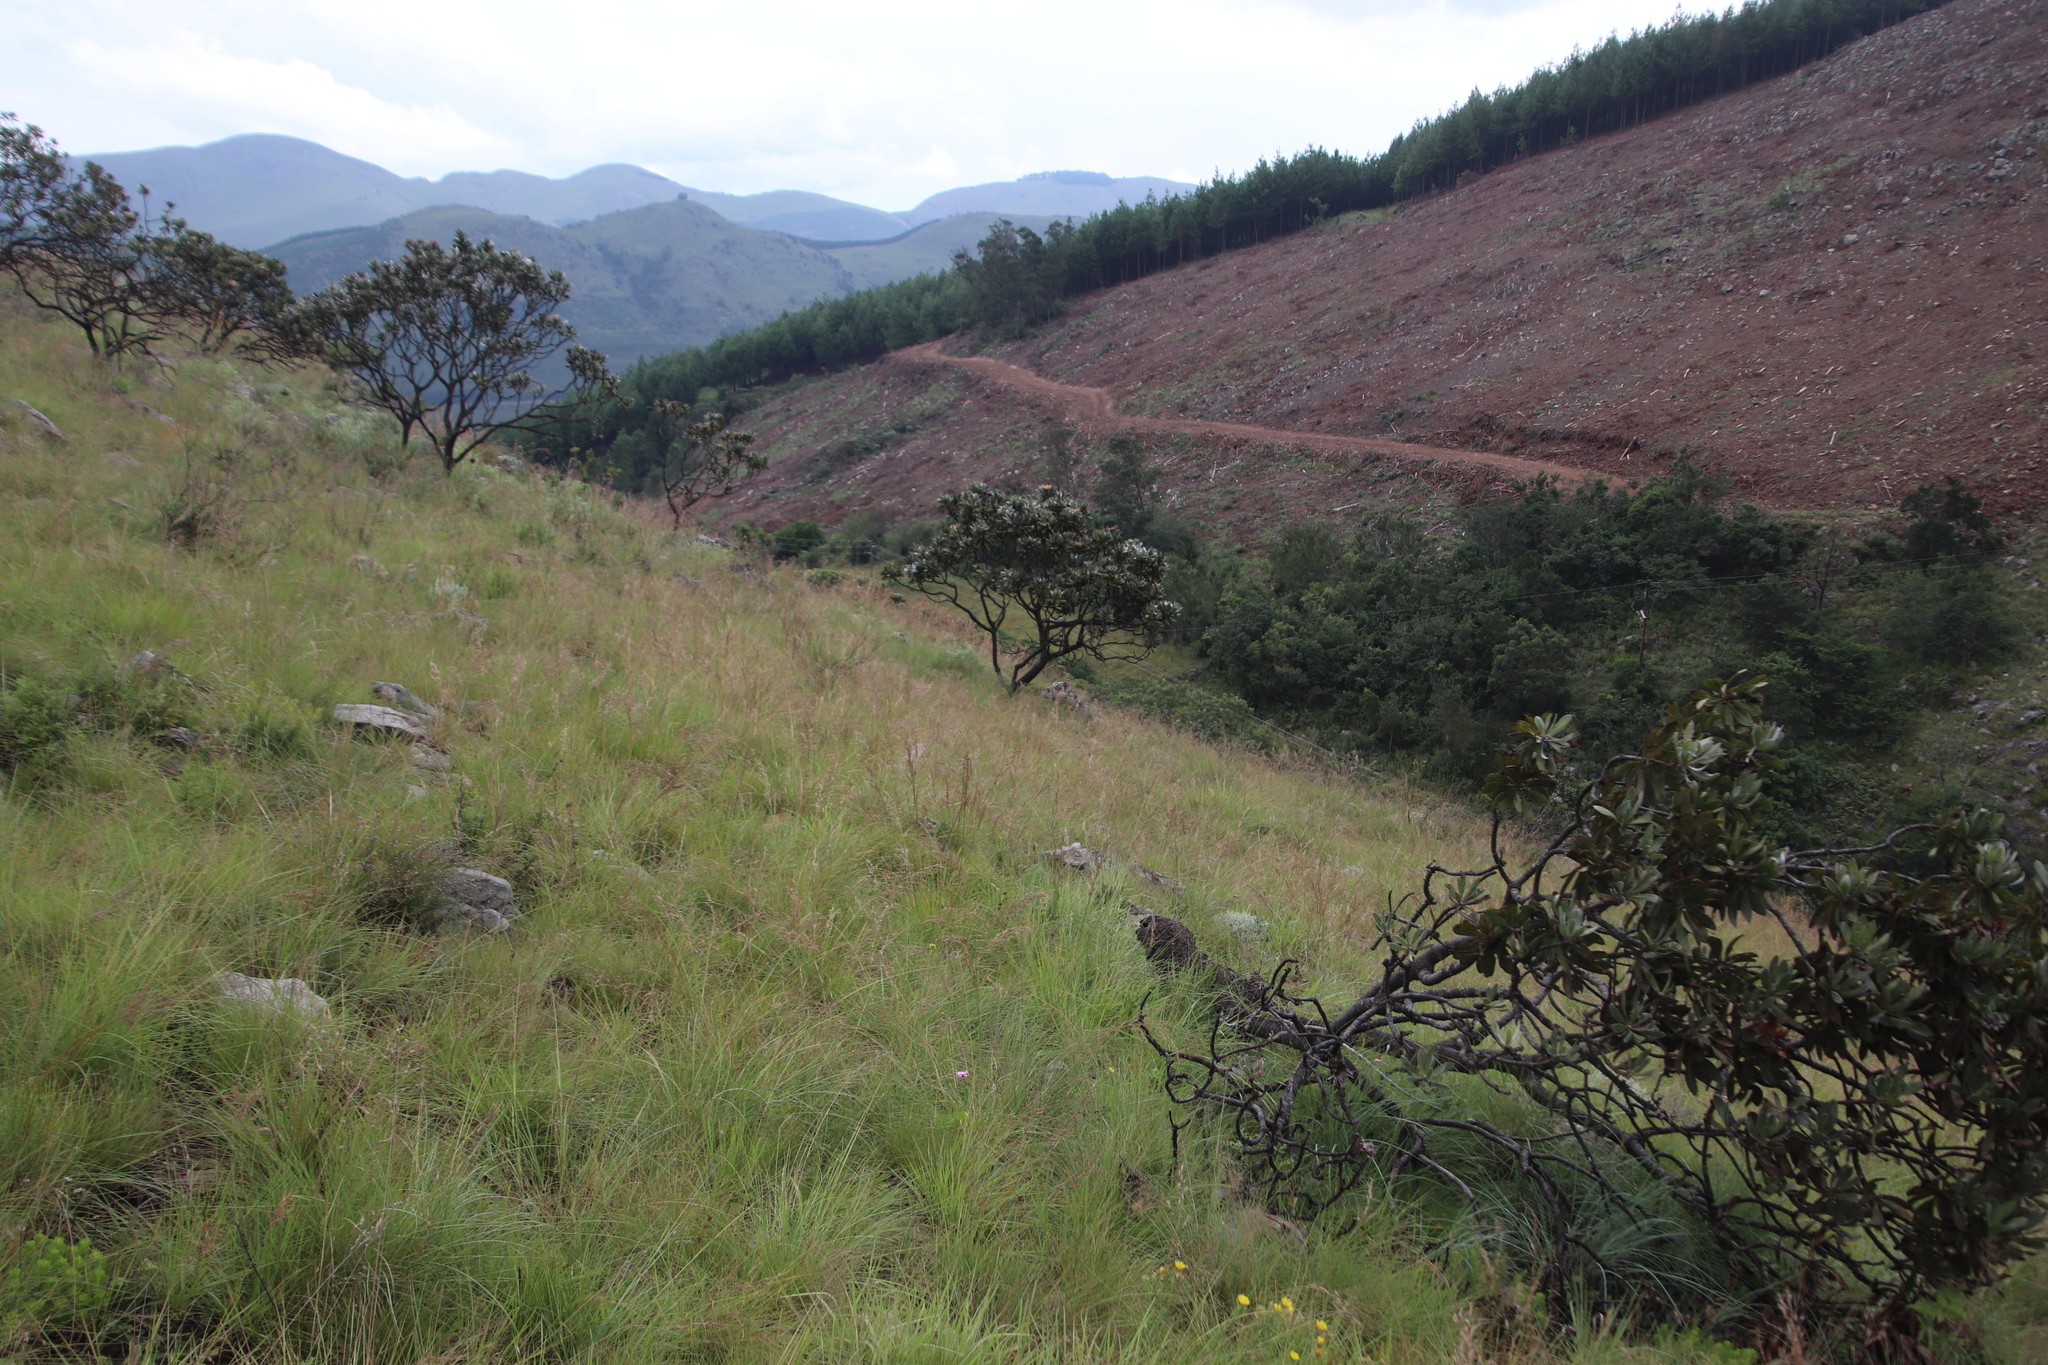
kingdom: Plantae
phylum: Tracheophyta
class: Magnoliopsida
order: Proteales
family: Proteaceae
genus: Protea
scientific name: Protea roupelliae
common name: Silver sugarbush
